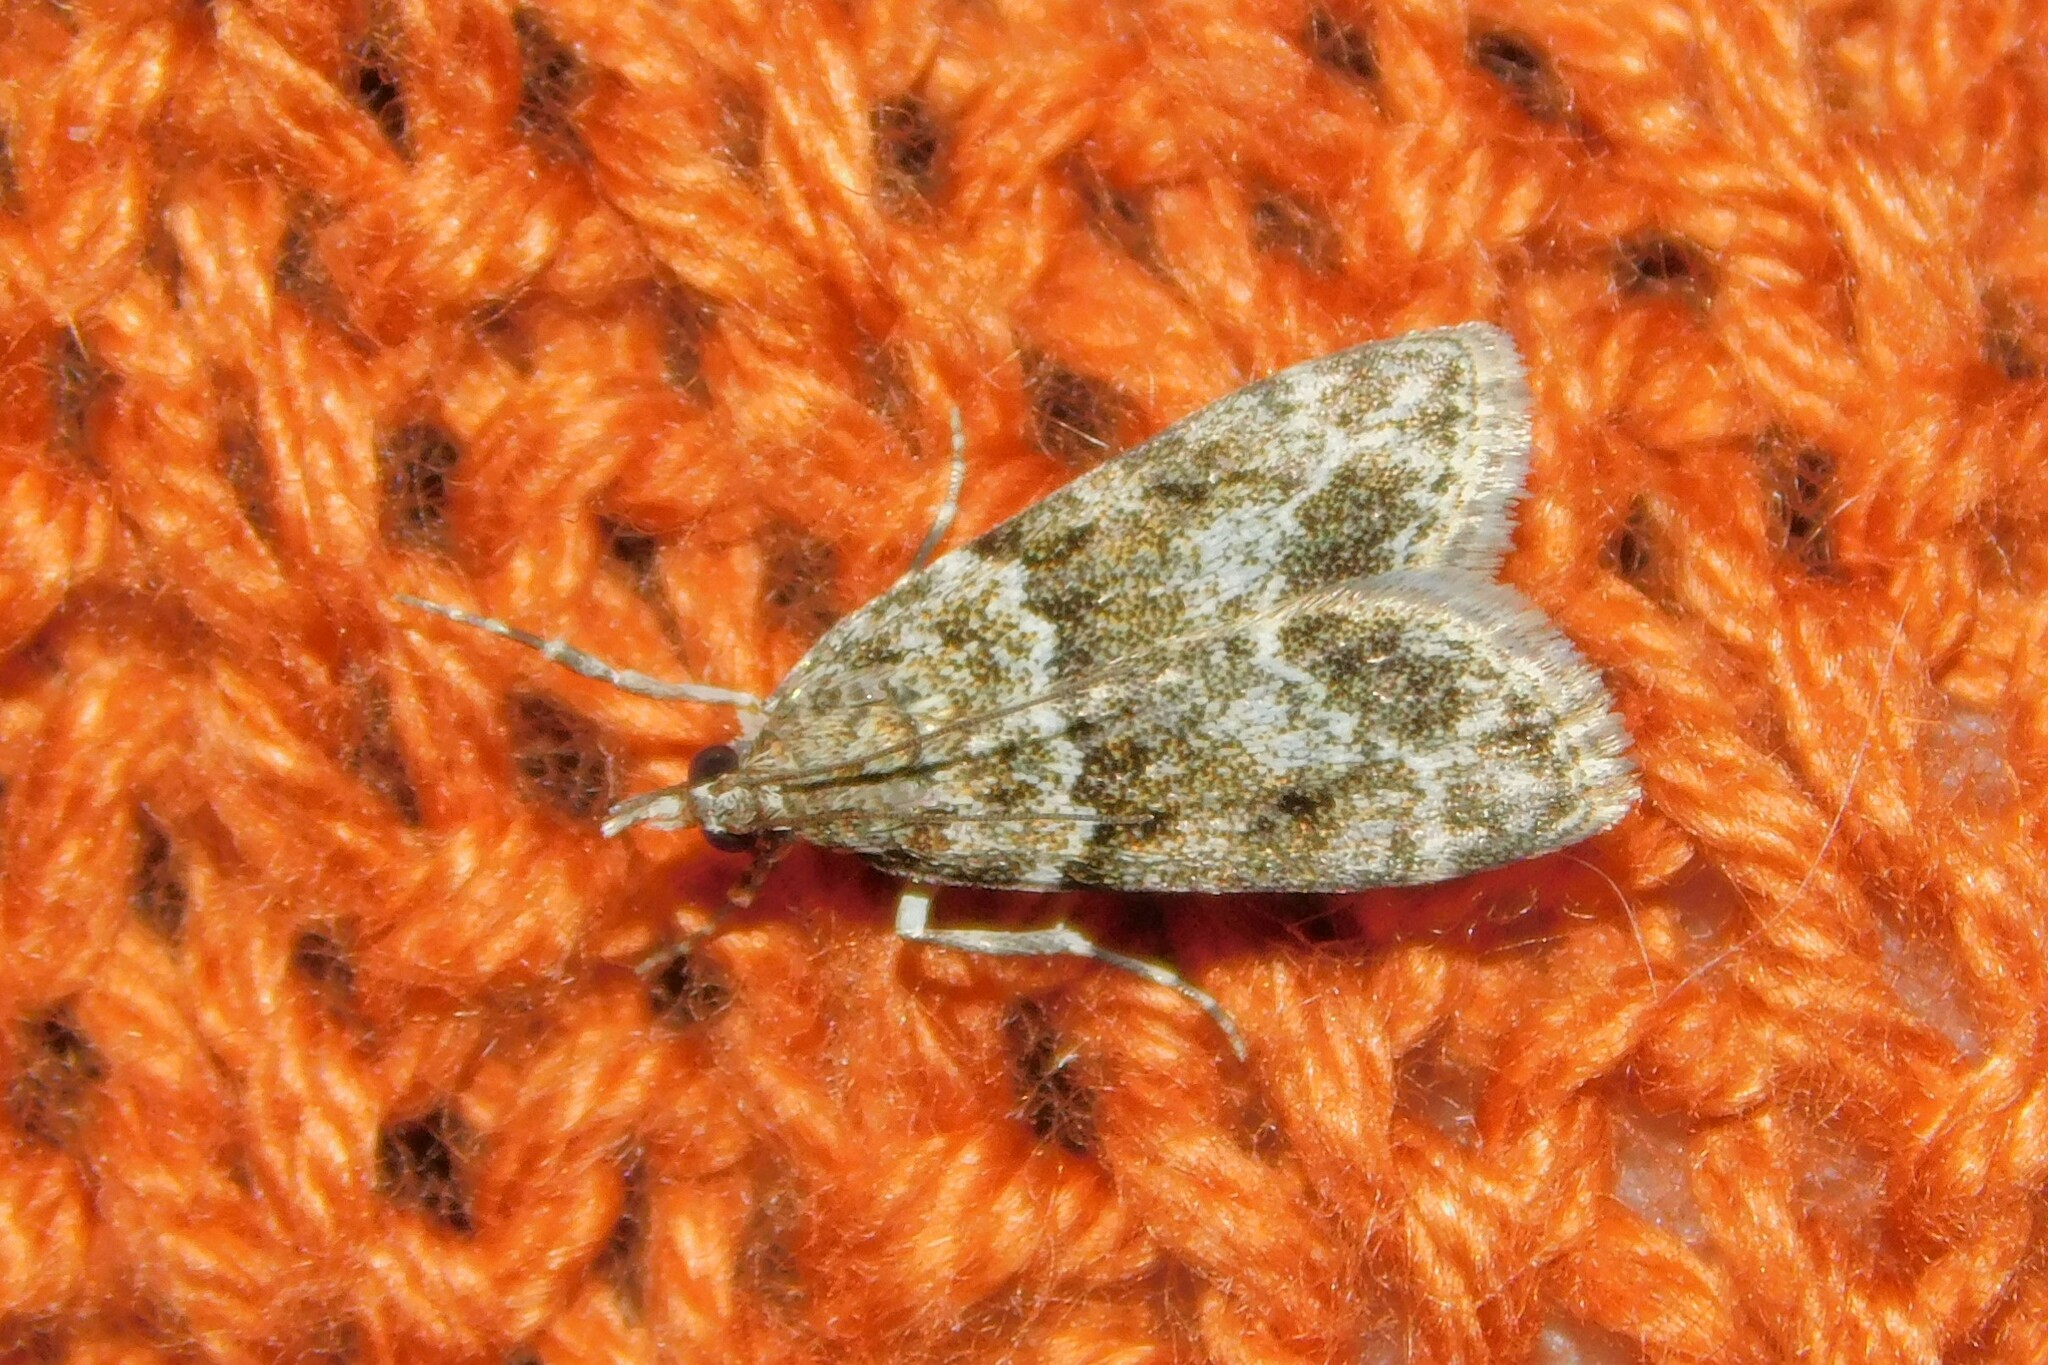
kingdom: Animalia
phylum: Arthropoda
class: Insecta
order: Lepidoptera
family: Crambidae
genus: Eudonia
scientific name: Eudonia mercurella
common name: Small grey
